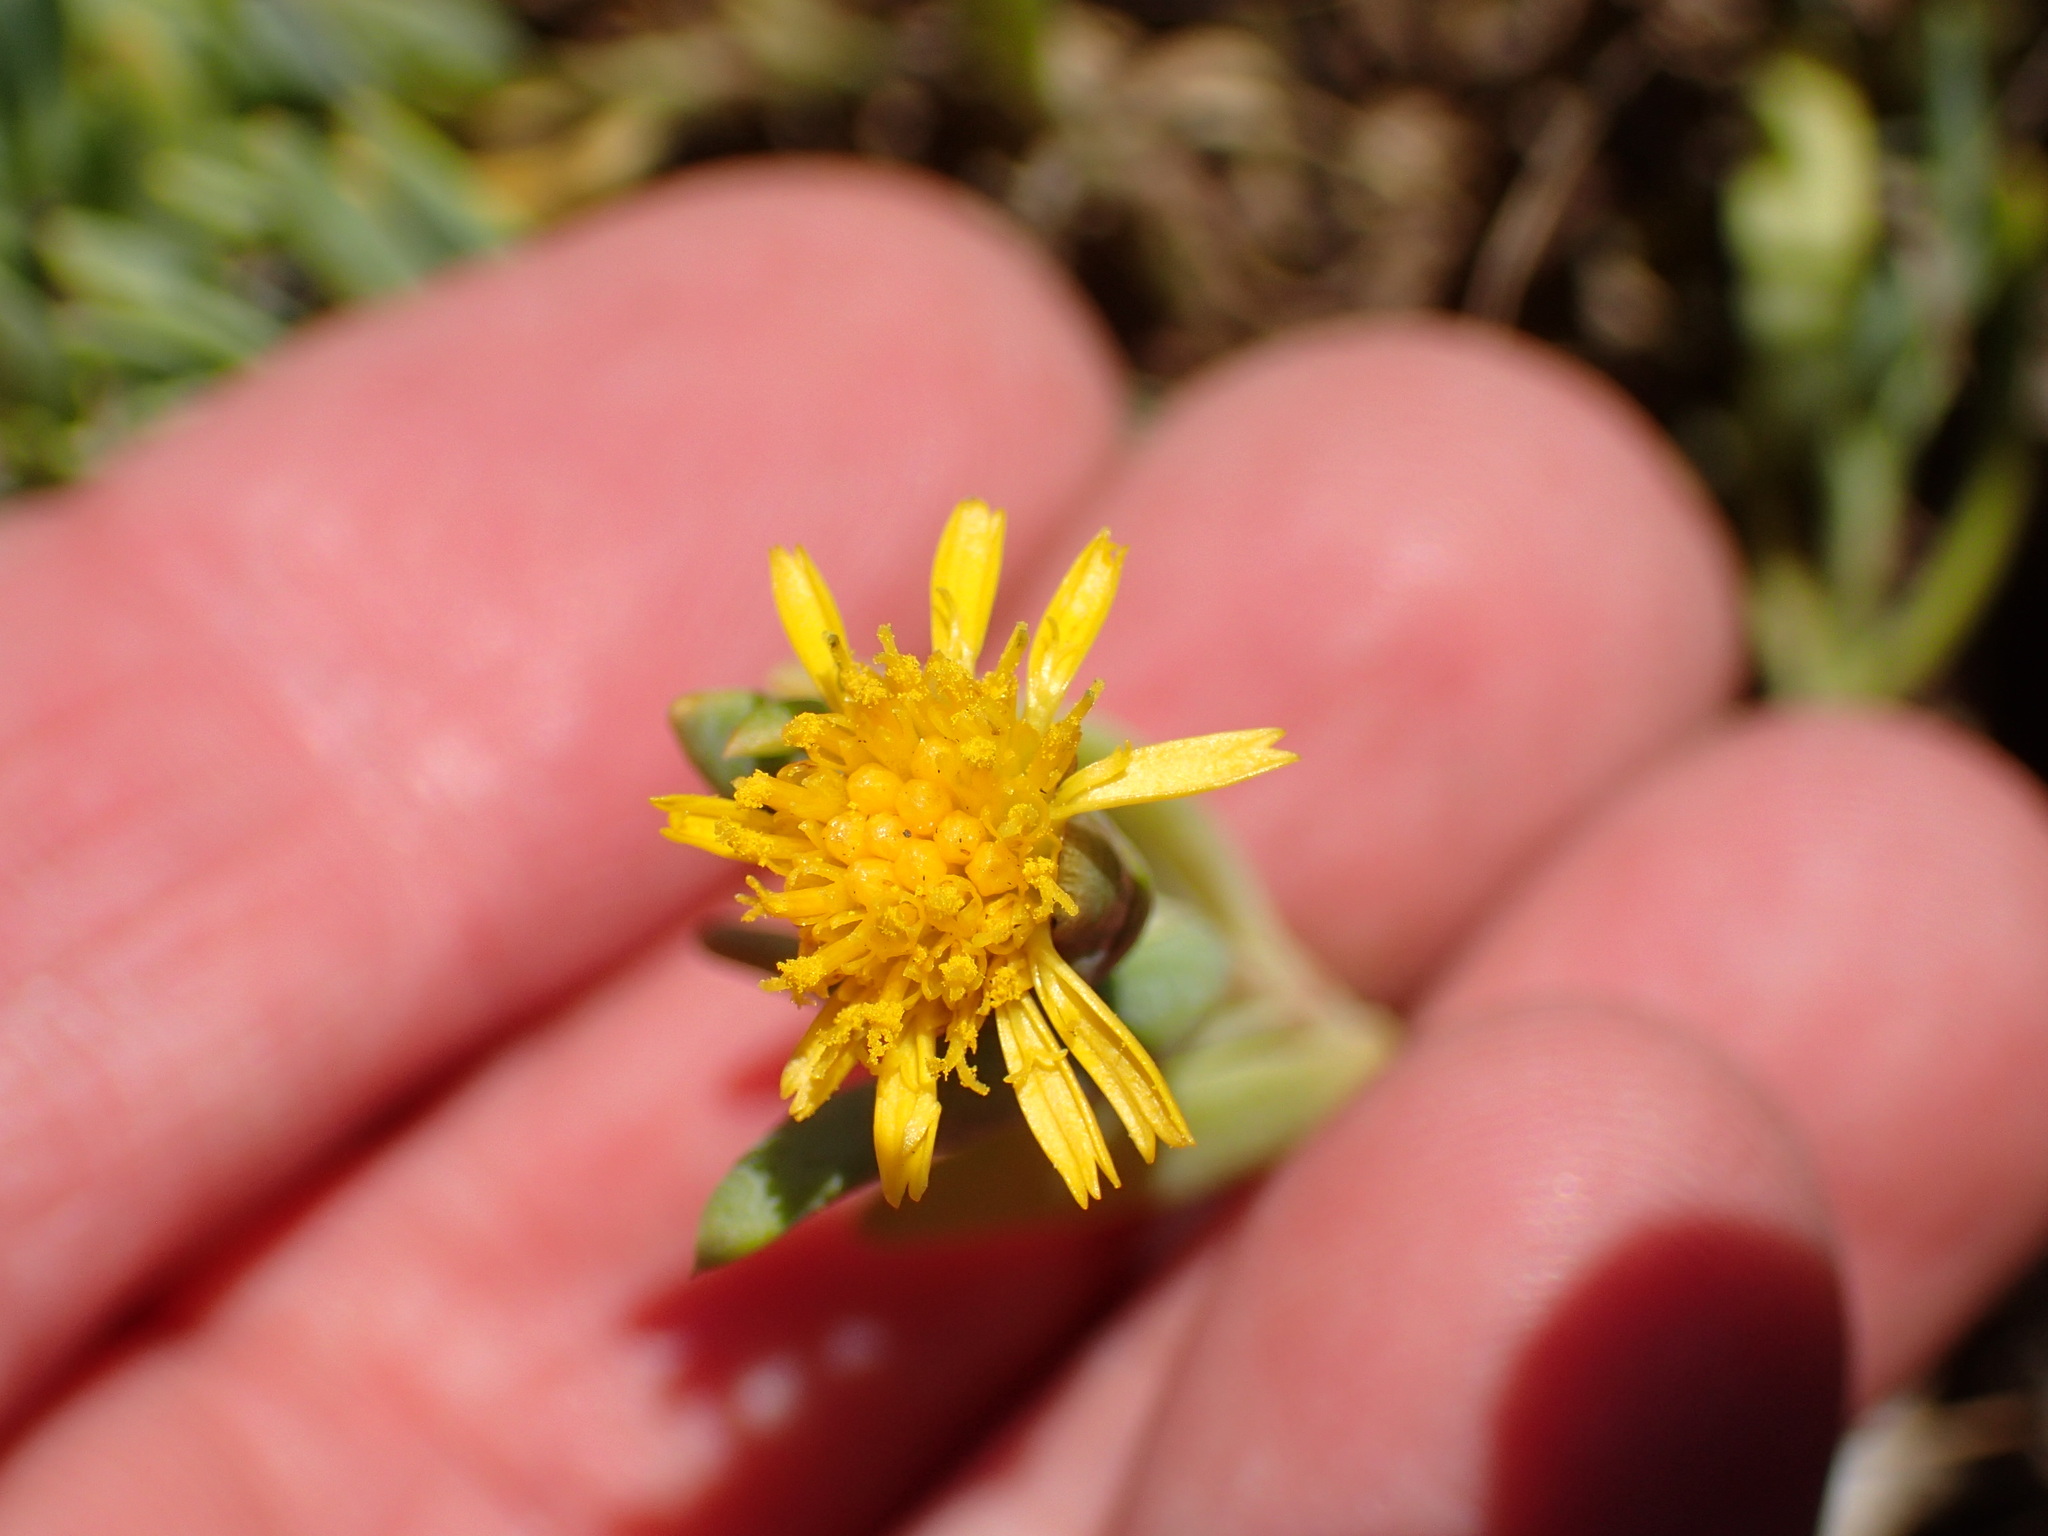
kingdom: Plantae
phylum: Tracheophyta
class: Magnoliopsida
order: Asterales
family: Asteraceae
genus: Jaumea
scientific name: Jaumea carnosa
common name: Fleshy jaumea
